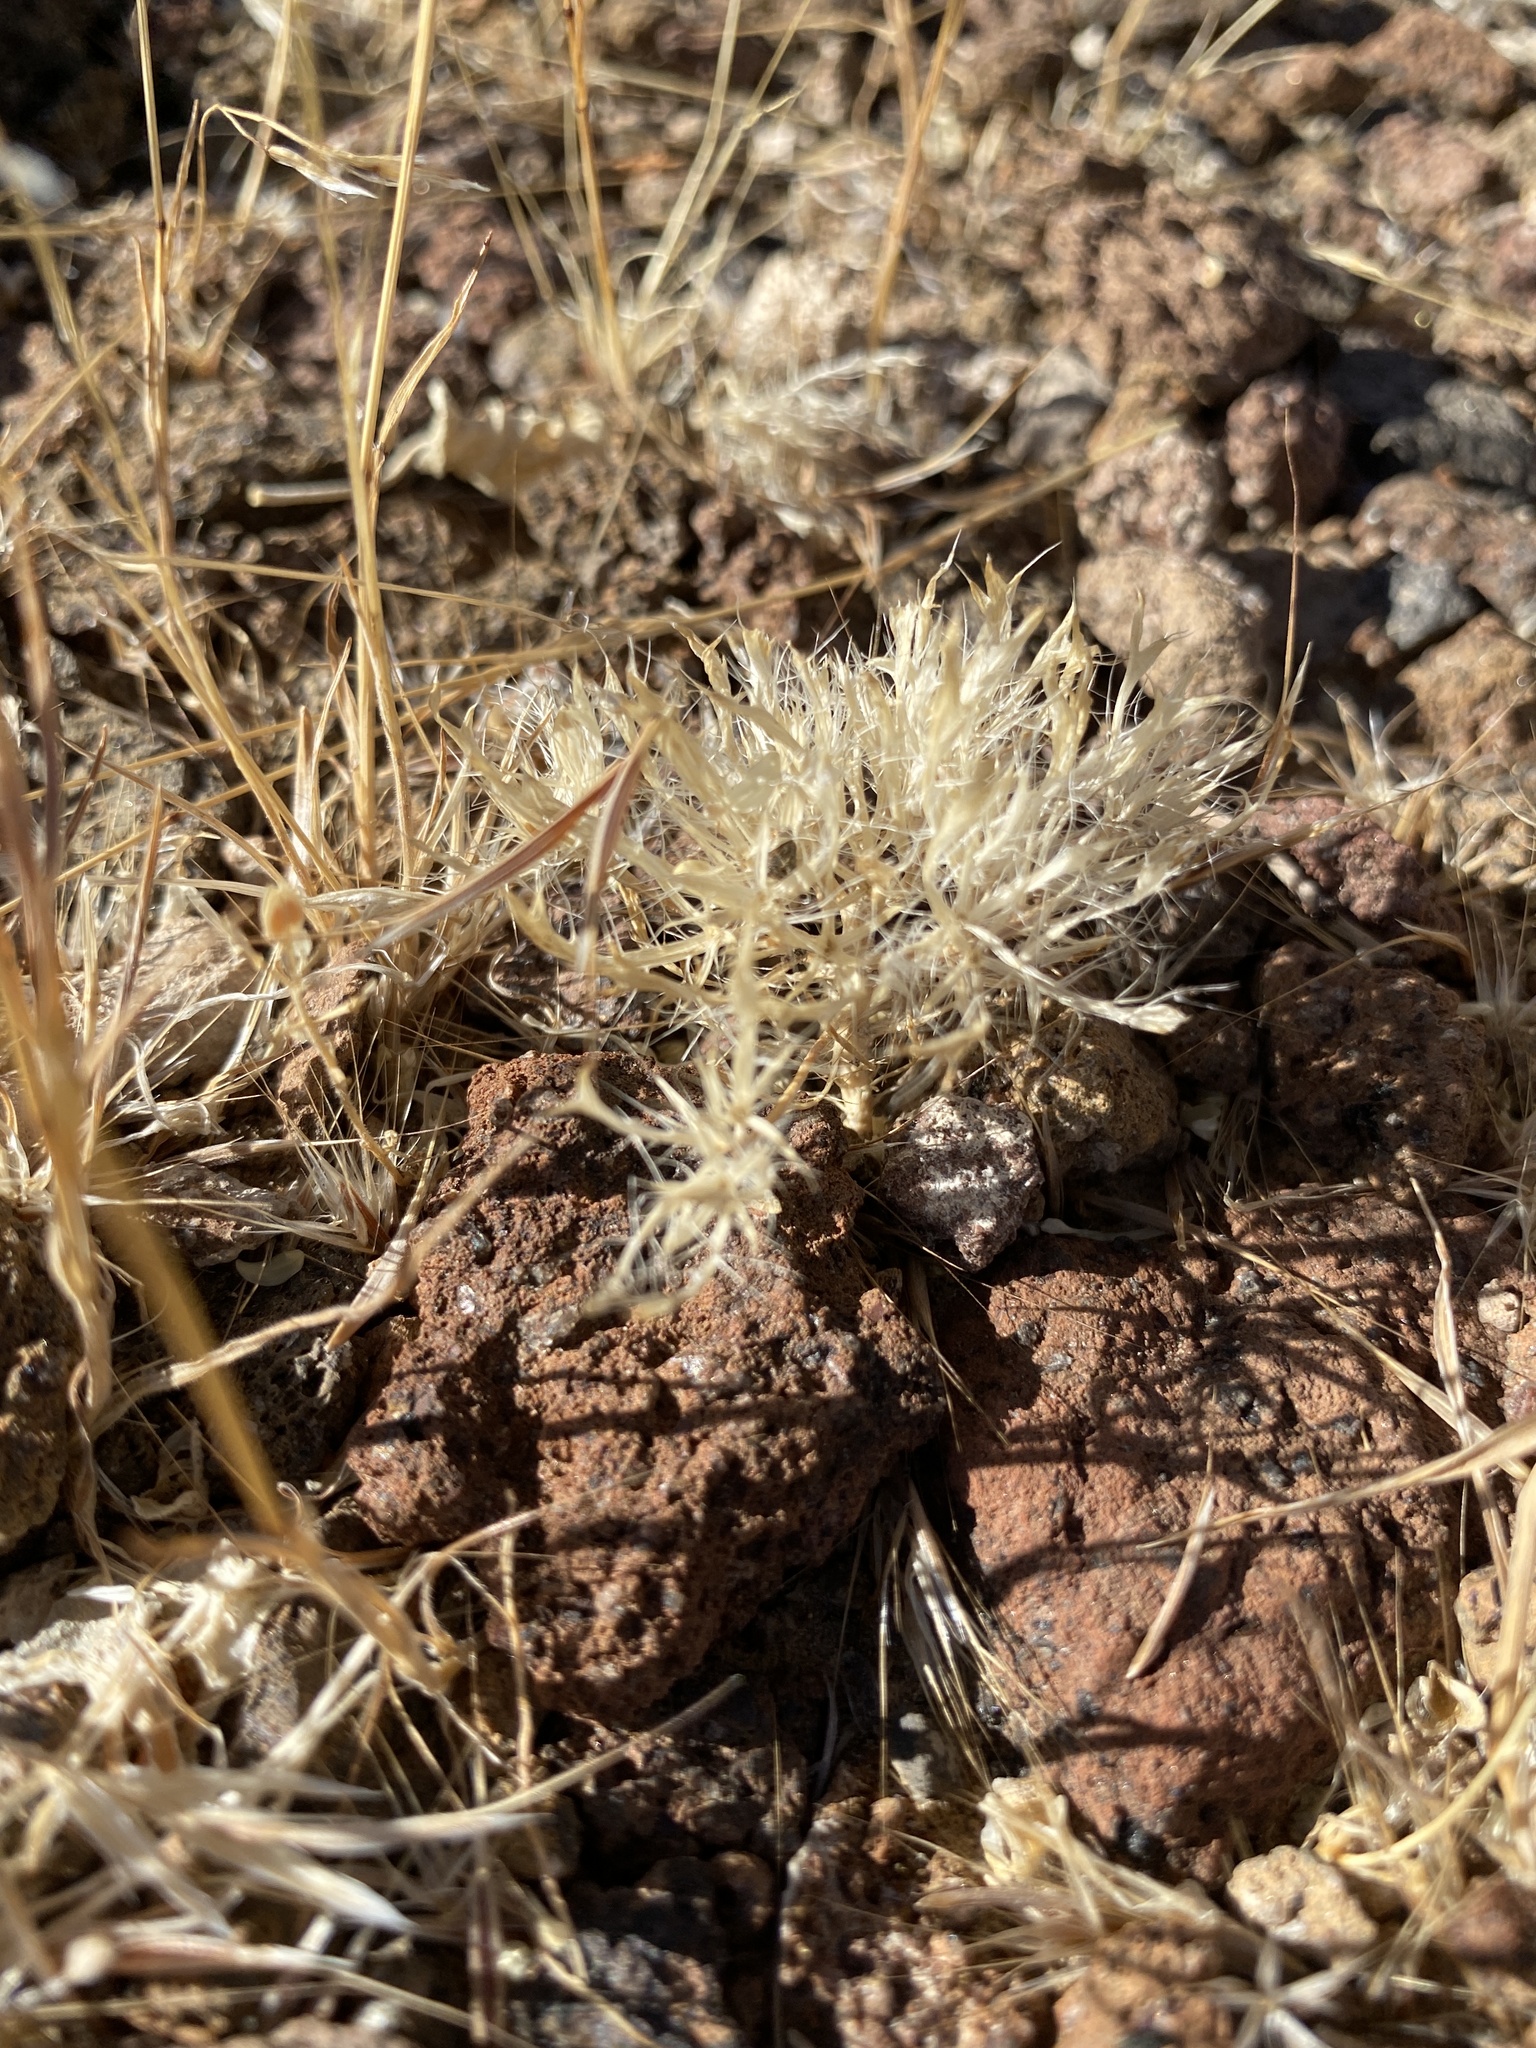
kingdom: Plantae
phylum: Tracheophyta
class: Liliopsida
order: Poales
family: Poaceae
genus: Dasyochloa
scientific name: Dasyochloa pulchella
